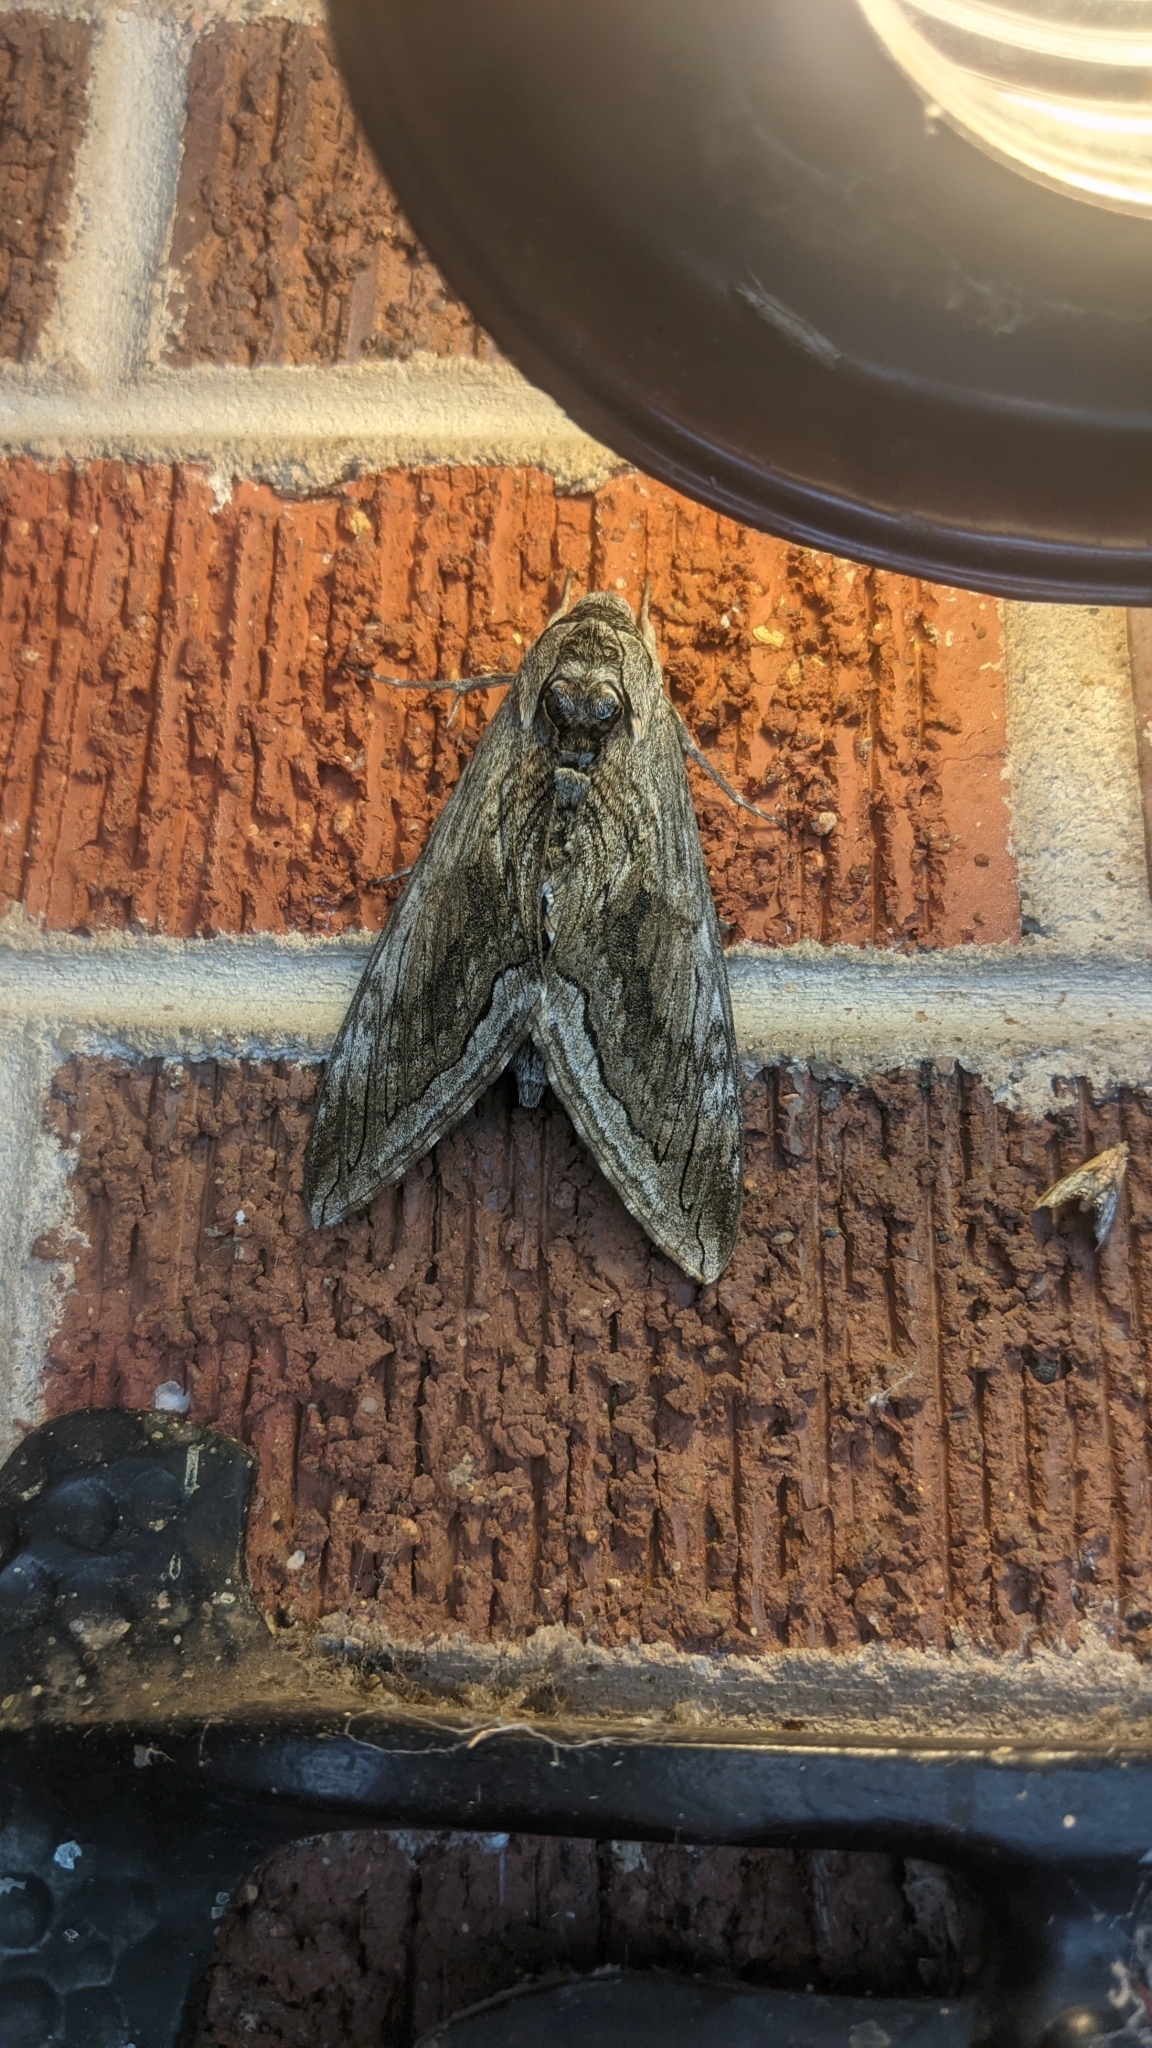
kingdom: Animalia
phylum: Arthropoda
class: Insecta
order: Lepidoptera
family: Sphingidae
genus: Manduca
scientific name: Manduca quinquemaculatus
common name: Five-spotted hawk-moth
